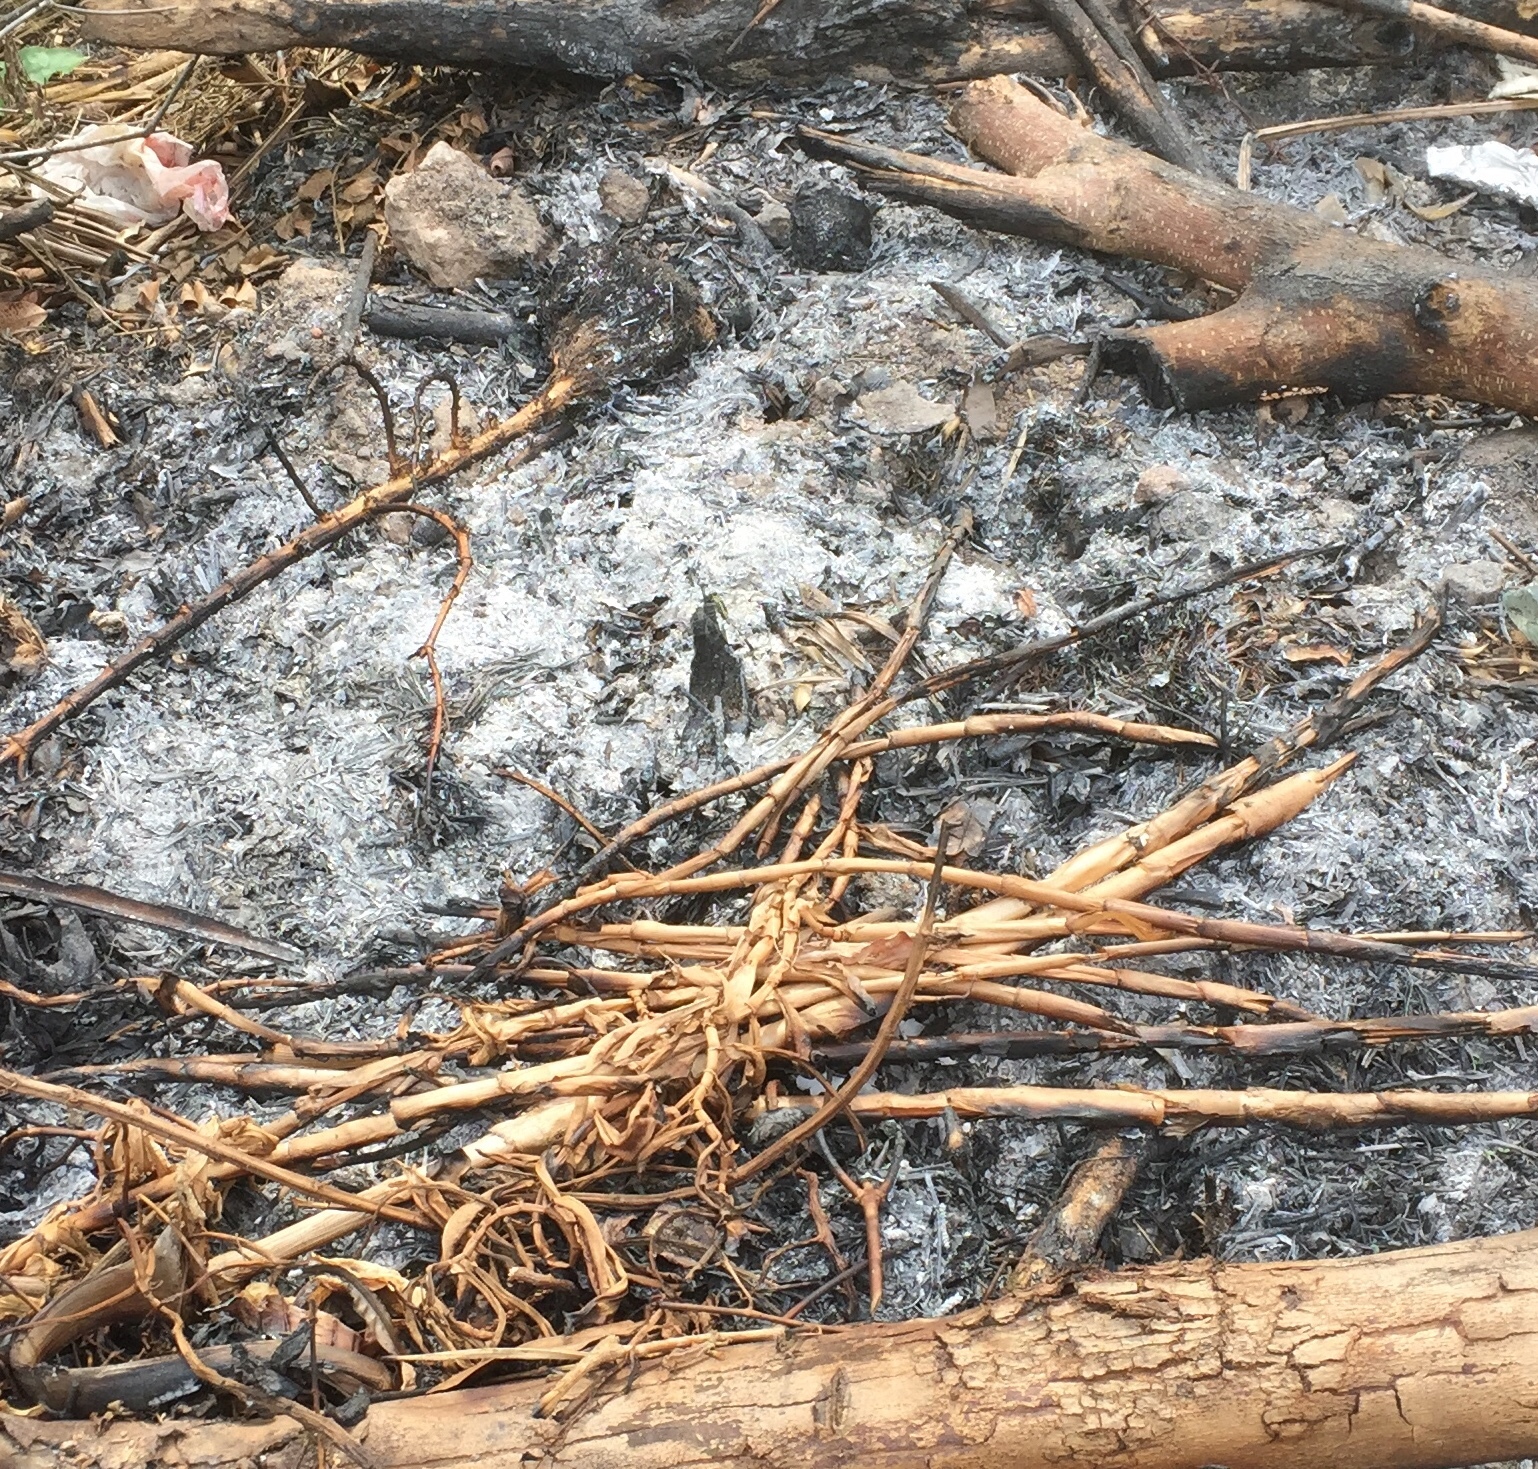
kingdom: Animalia
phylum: Arthropoda
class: Insecta
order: Odonata
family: Libellulidae
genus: Orthetrum
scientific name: Orthetrum sabina
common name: Slender skimmer
